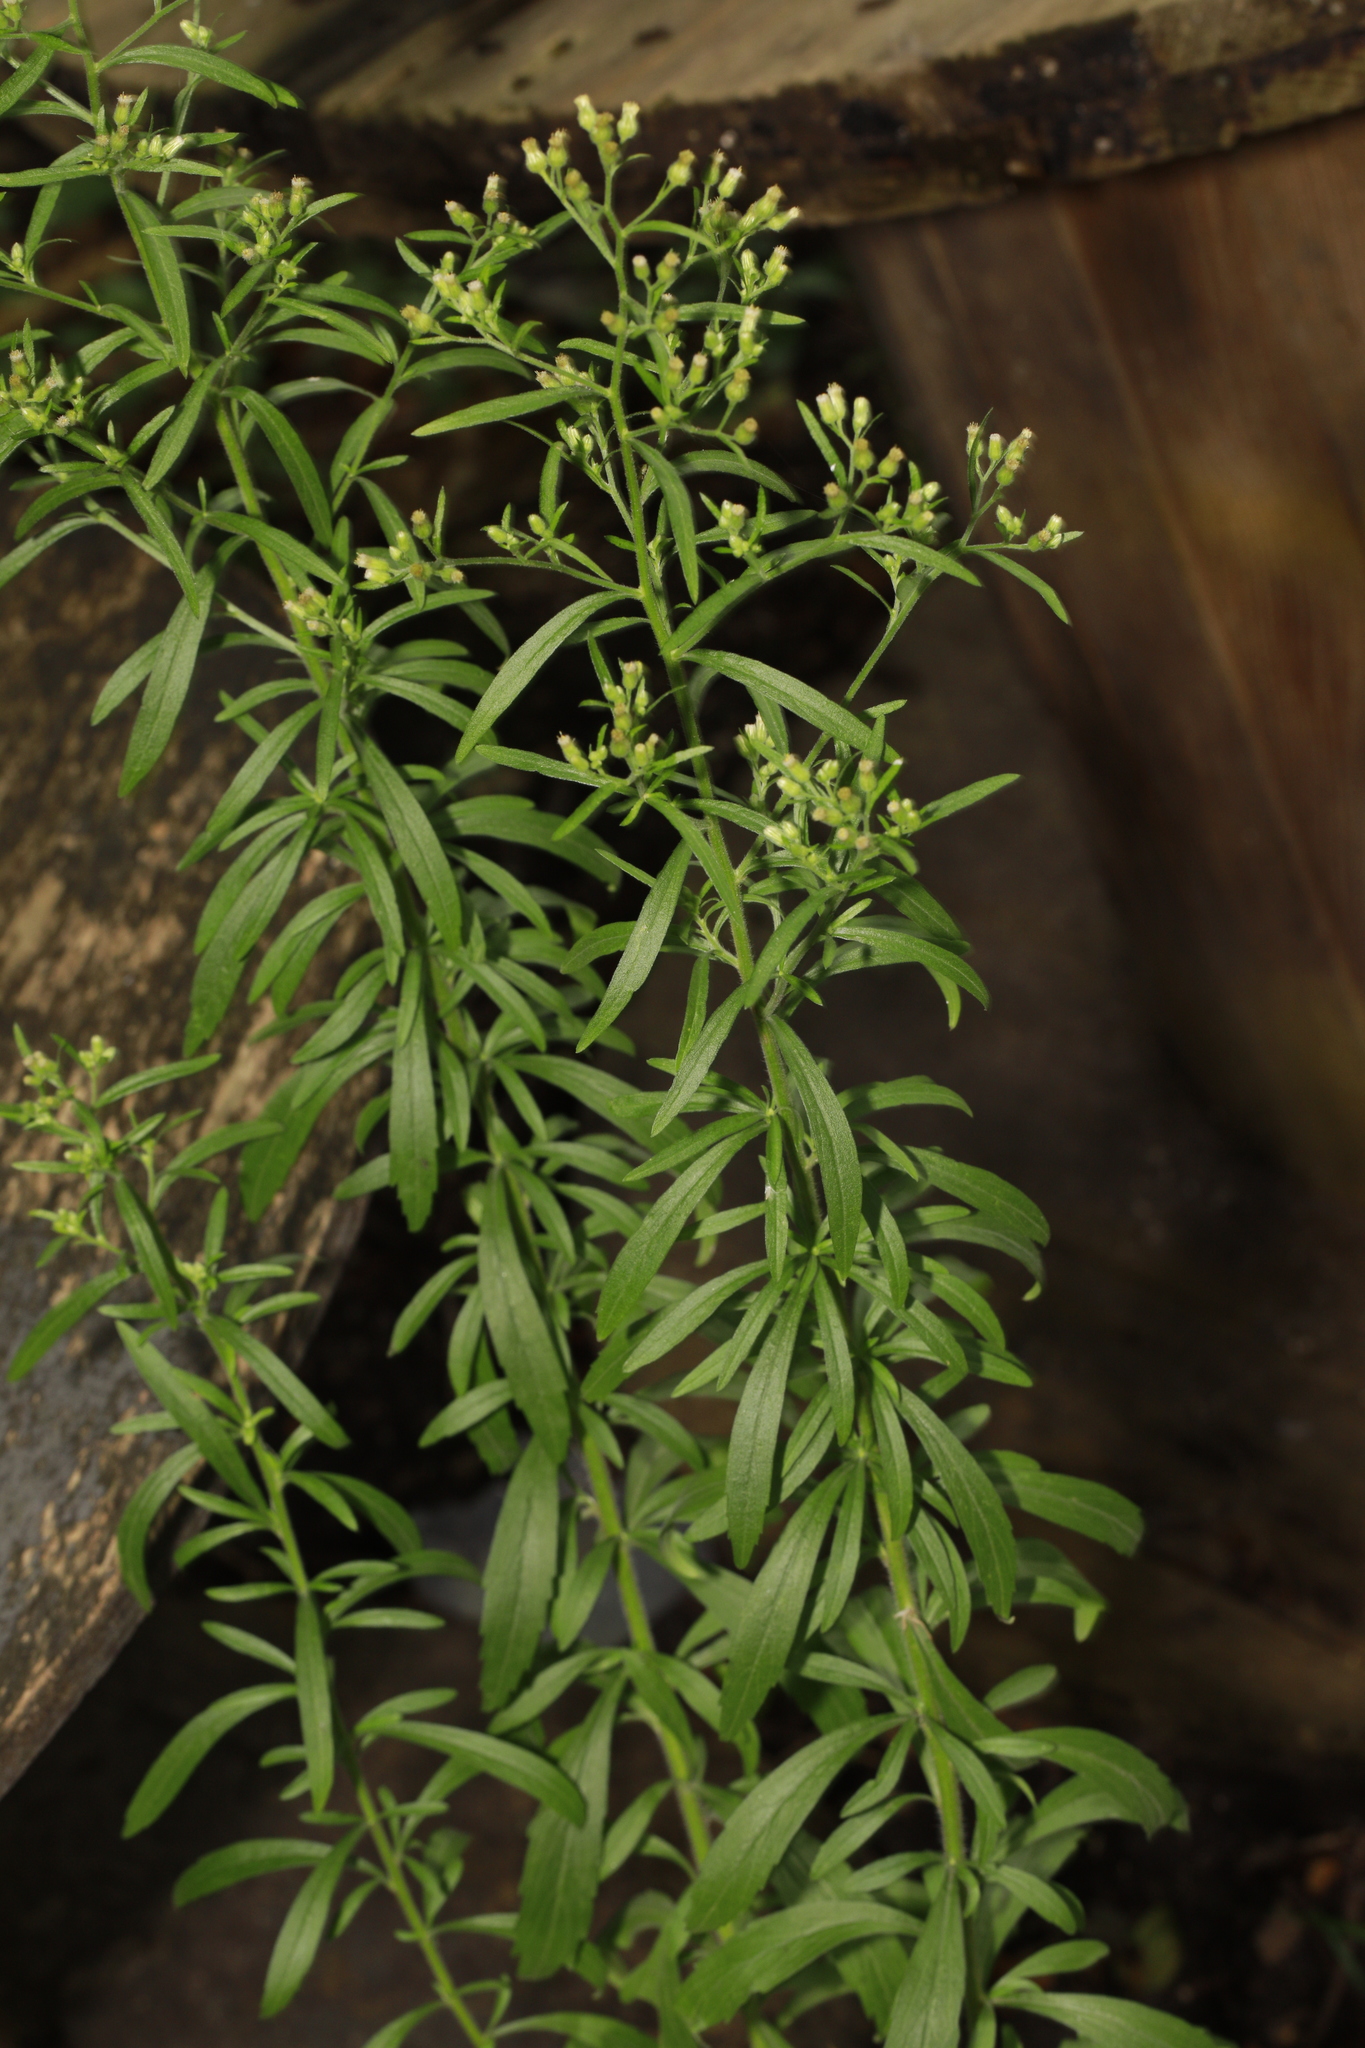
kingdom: Plantae
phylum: Tracheophyta
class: Magnoliopsida
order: Asterales
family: Asteraceae
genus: Erigeron
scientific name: Erigeron sumatrensis
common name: Daisy
